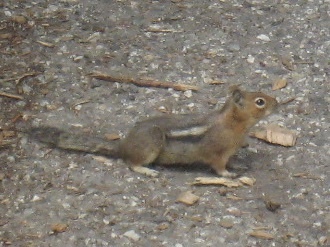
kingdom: Animalia
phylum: Chordata
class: Mammalia
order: Rodentia
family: Sciuridae
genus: Callospermophilus
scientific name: Callospermophilus saturatus
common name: Cascade golden-mantled ground squirrel
